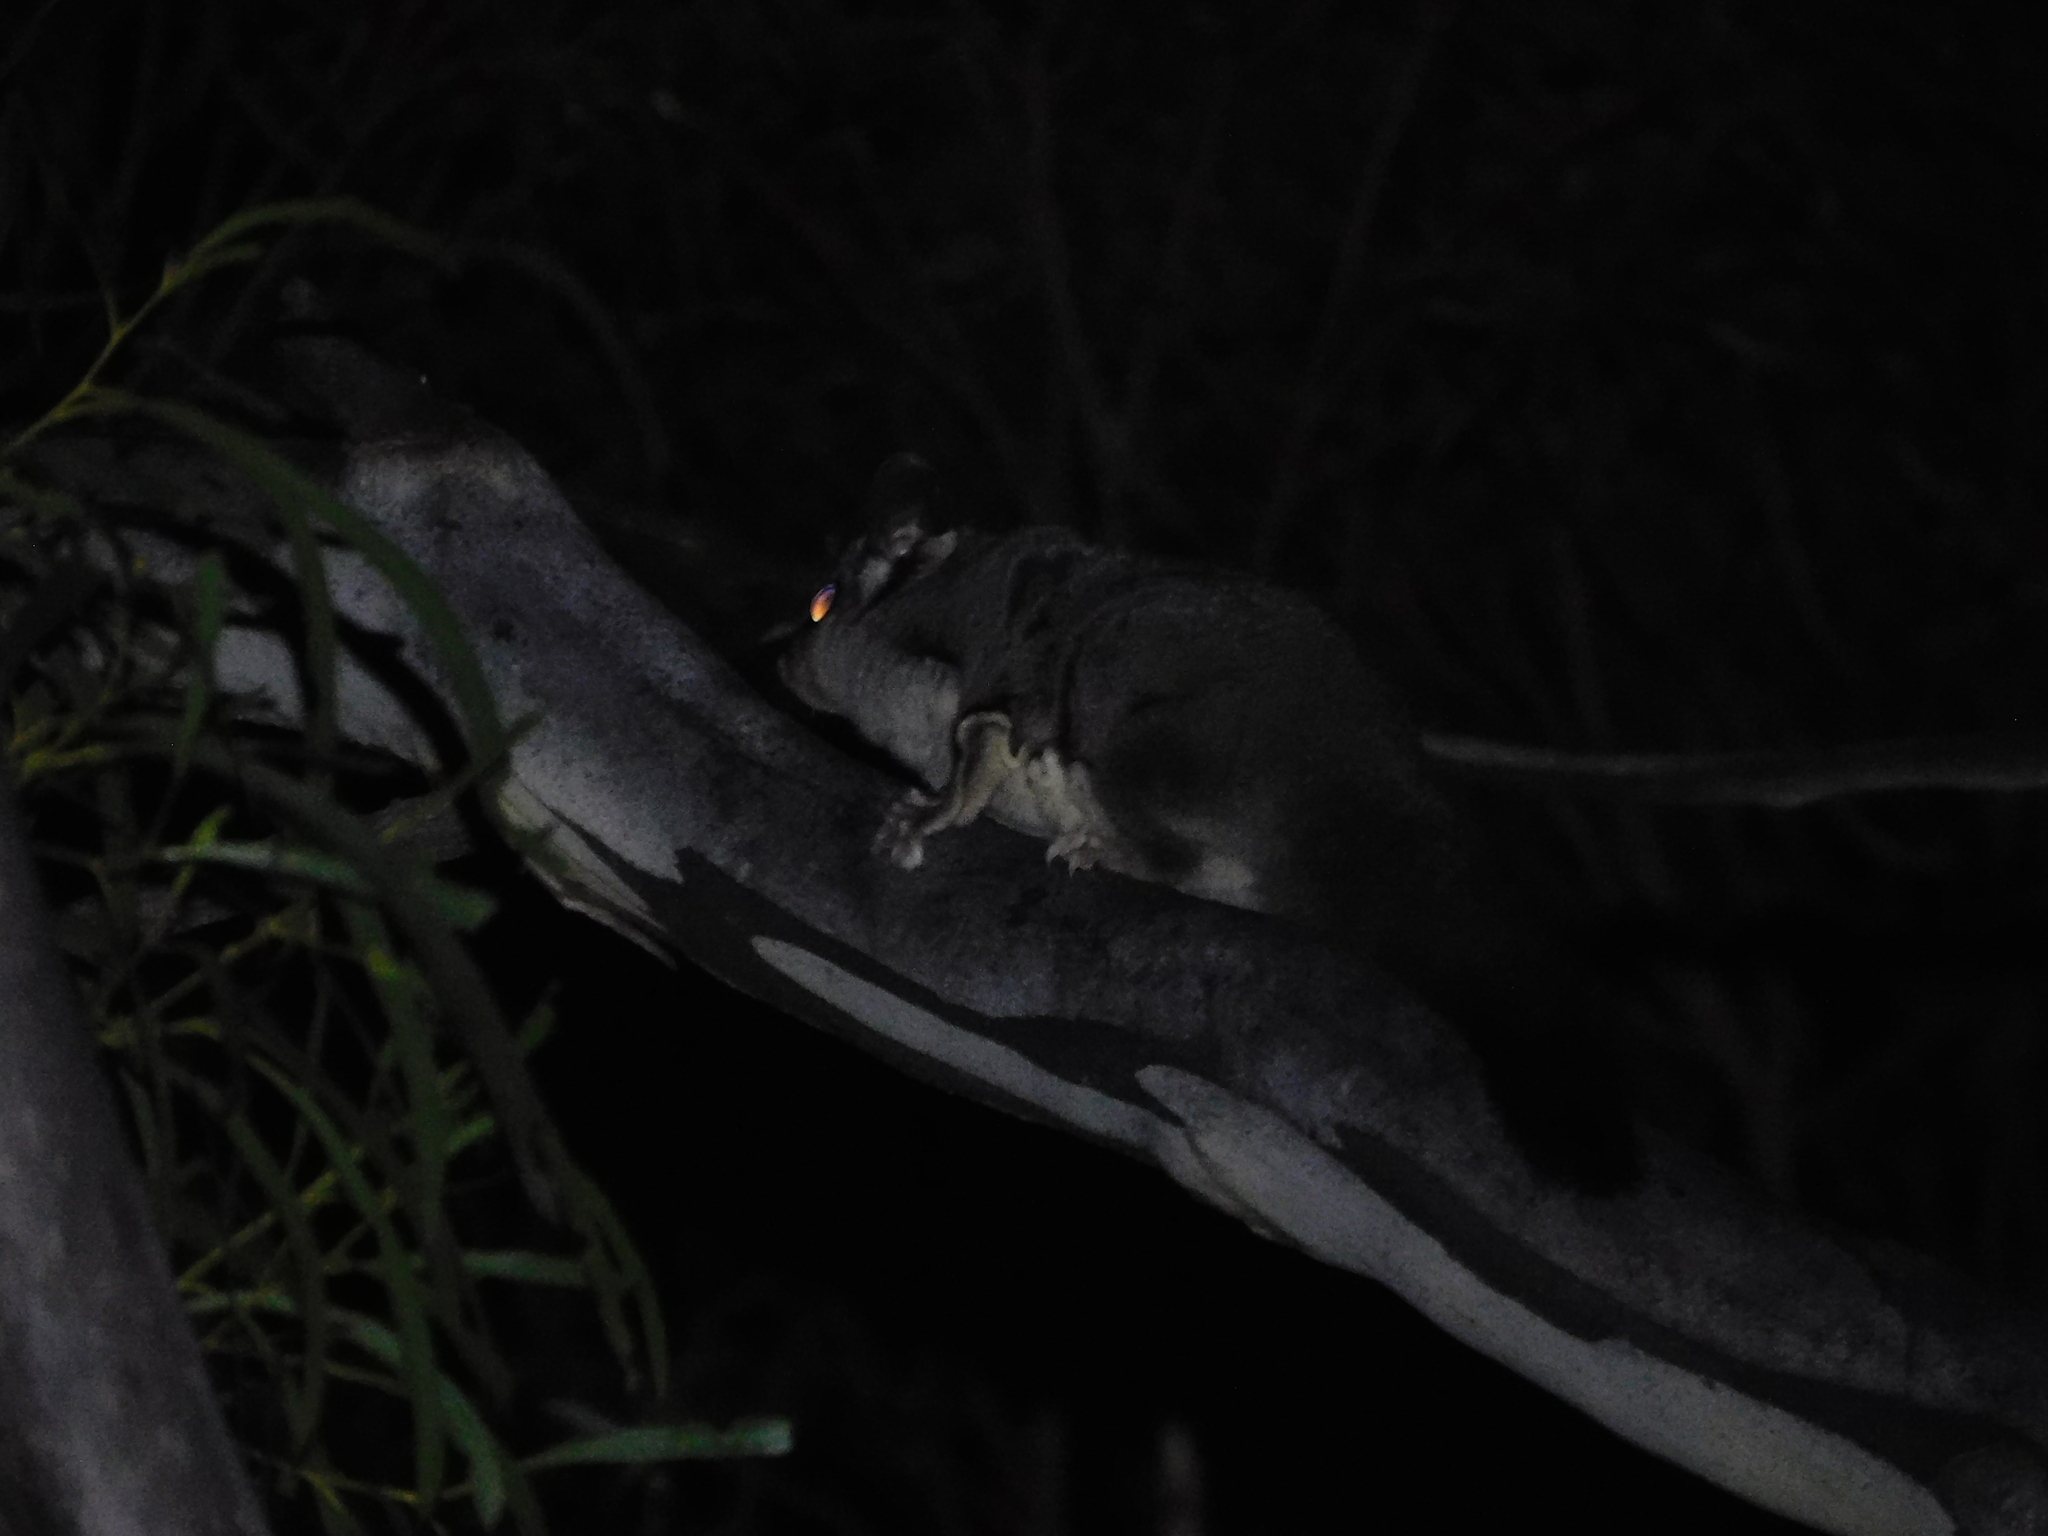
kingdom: Animalia
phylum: Chordata
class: Mammalia
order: Diprotodontia
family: Petauridae
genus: Petaurus
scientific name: Petaurus breviceps
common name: Sugar glider
